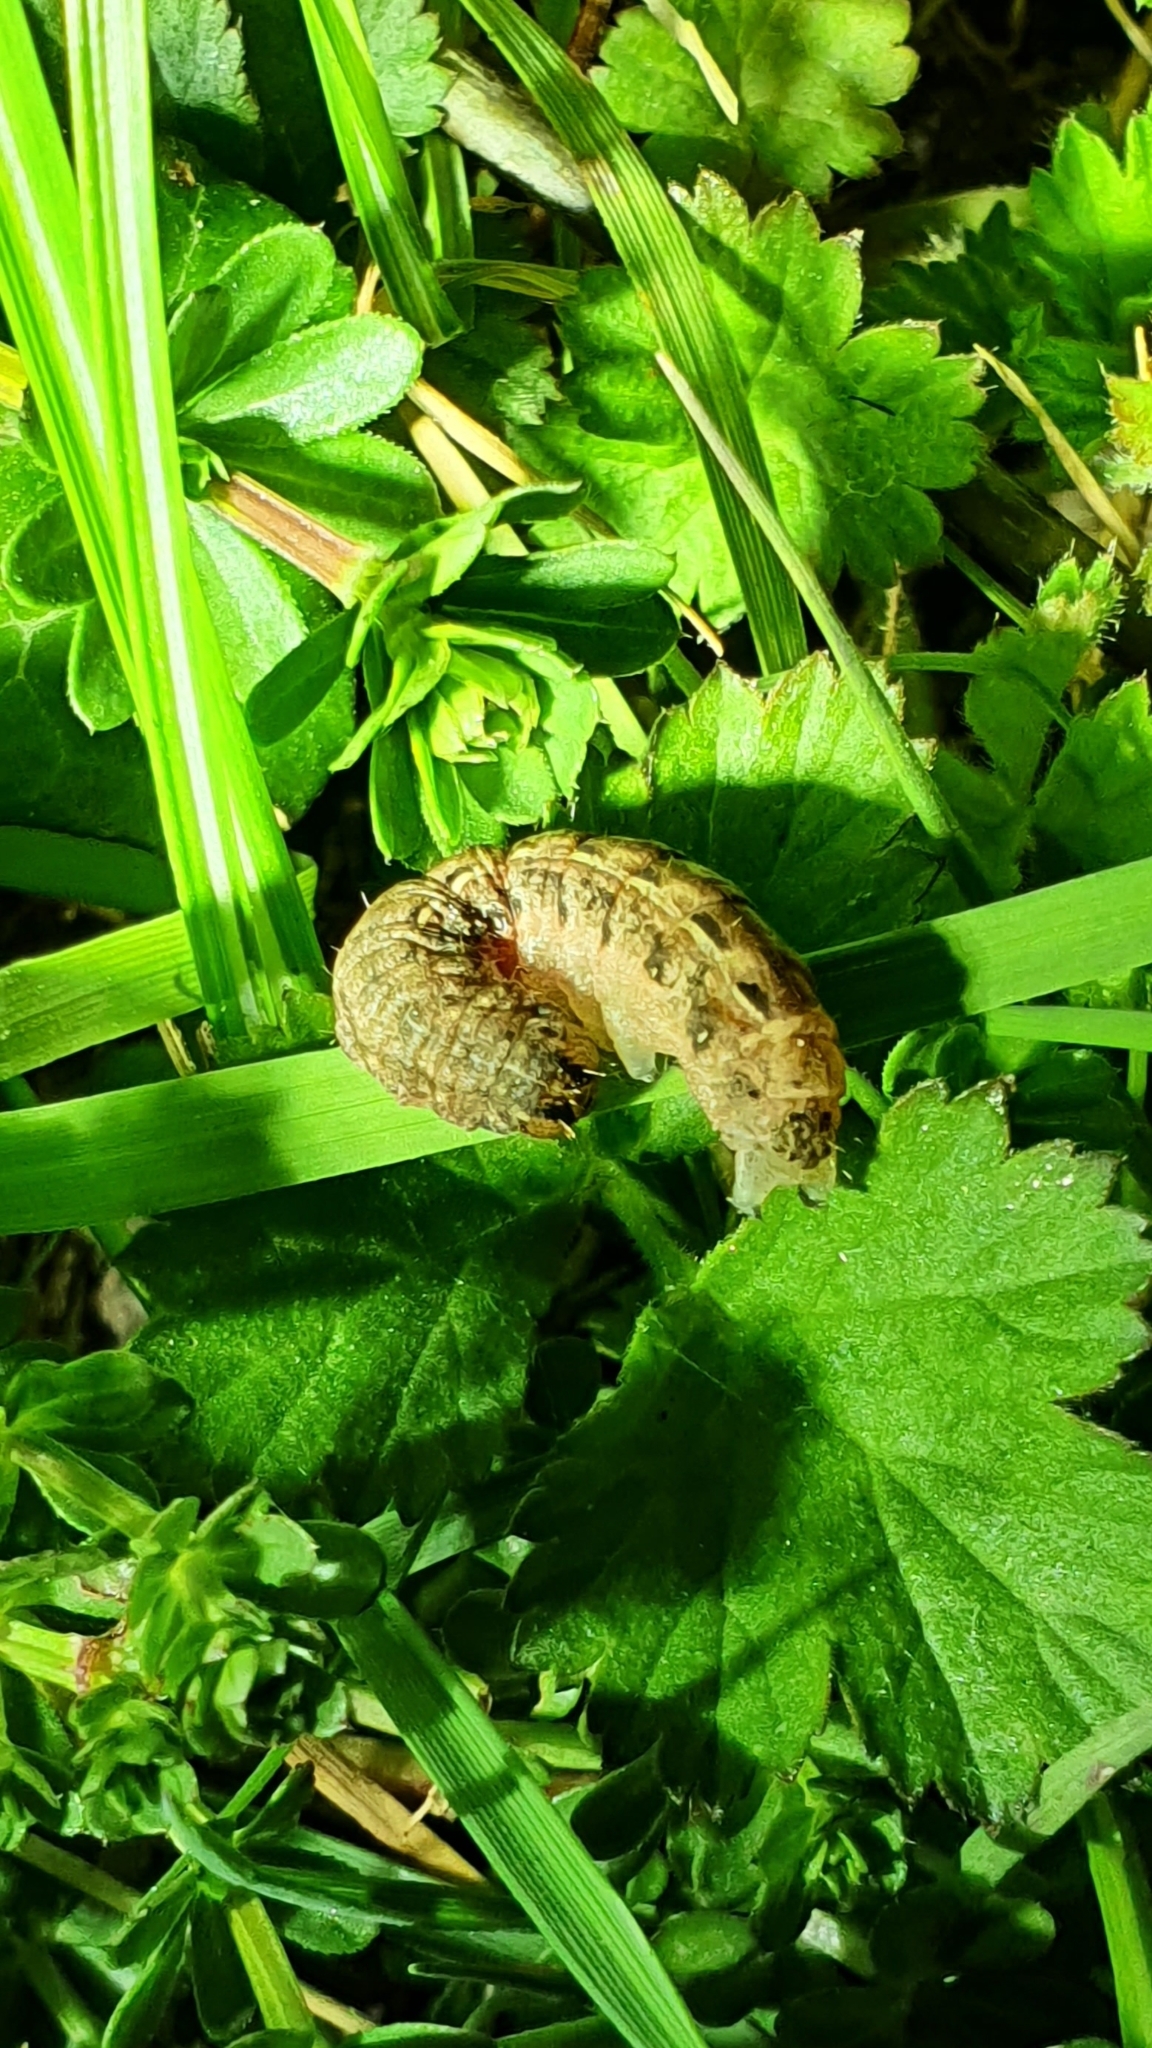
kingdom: Animalia
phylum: Arthropoda
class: Insecta
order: Lepidoptera
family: Noctuidae
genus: Noctua
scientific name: Noctua pronuba
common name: Large yellow underwing
